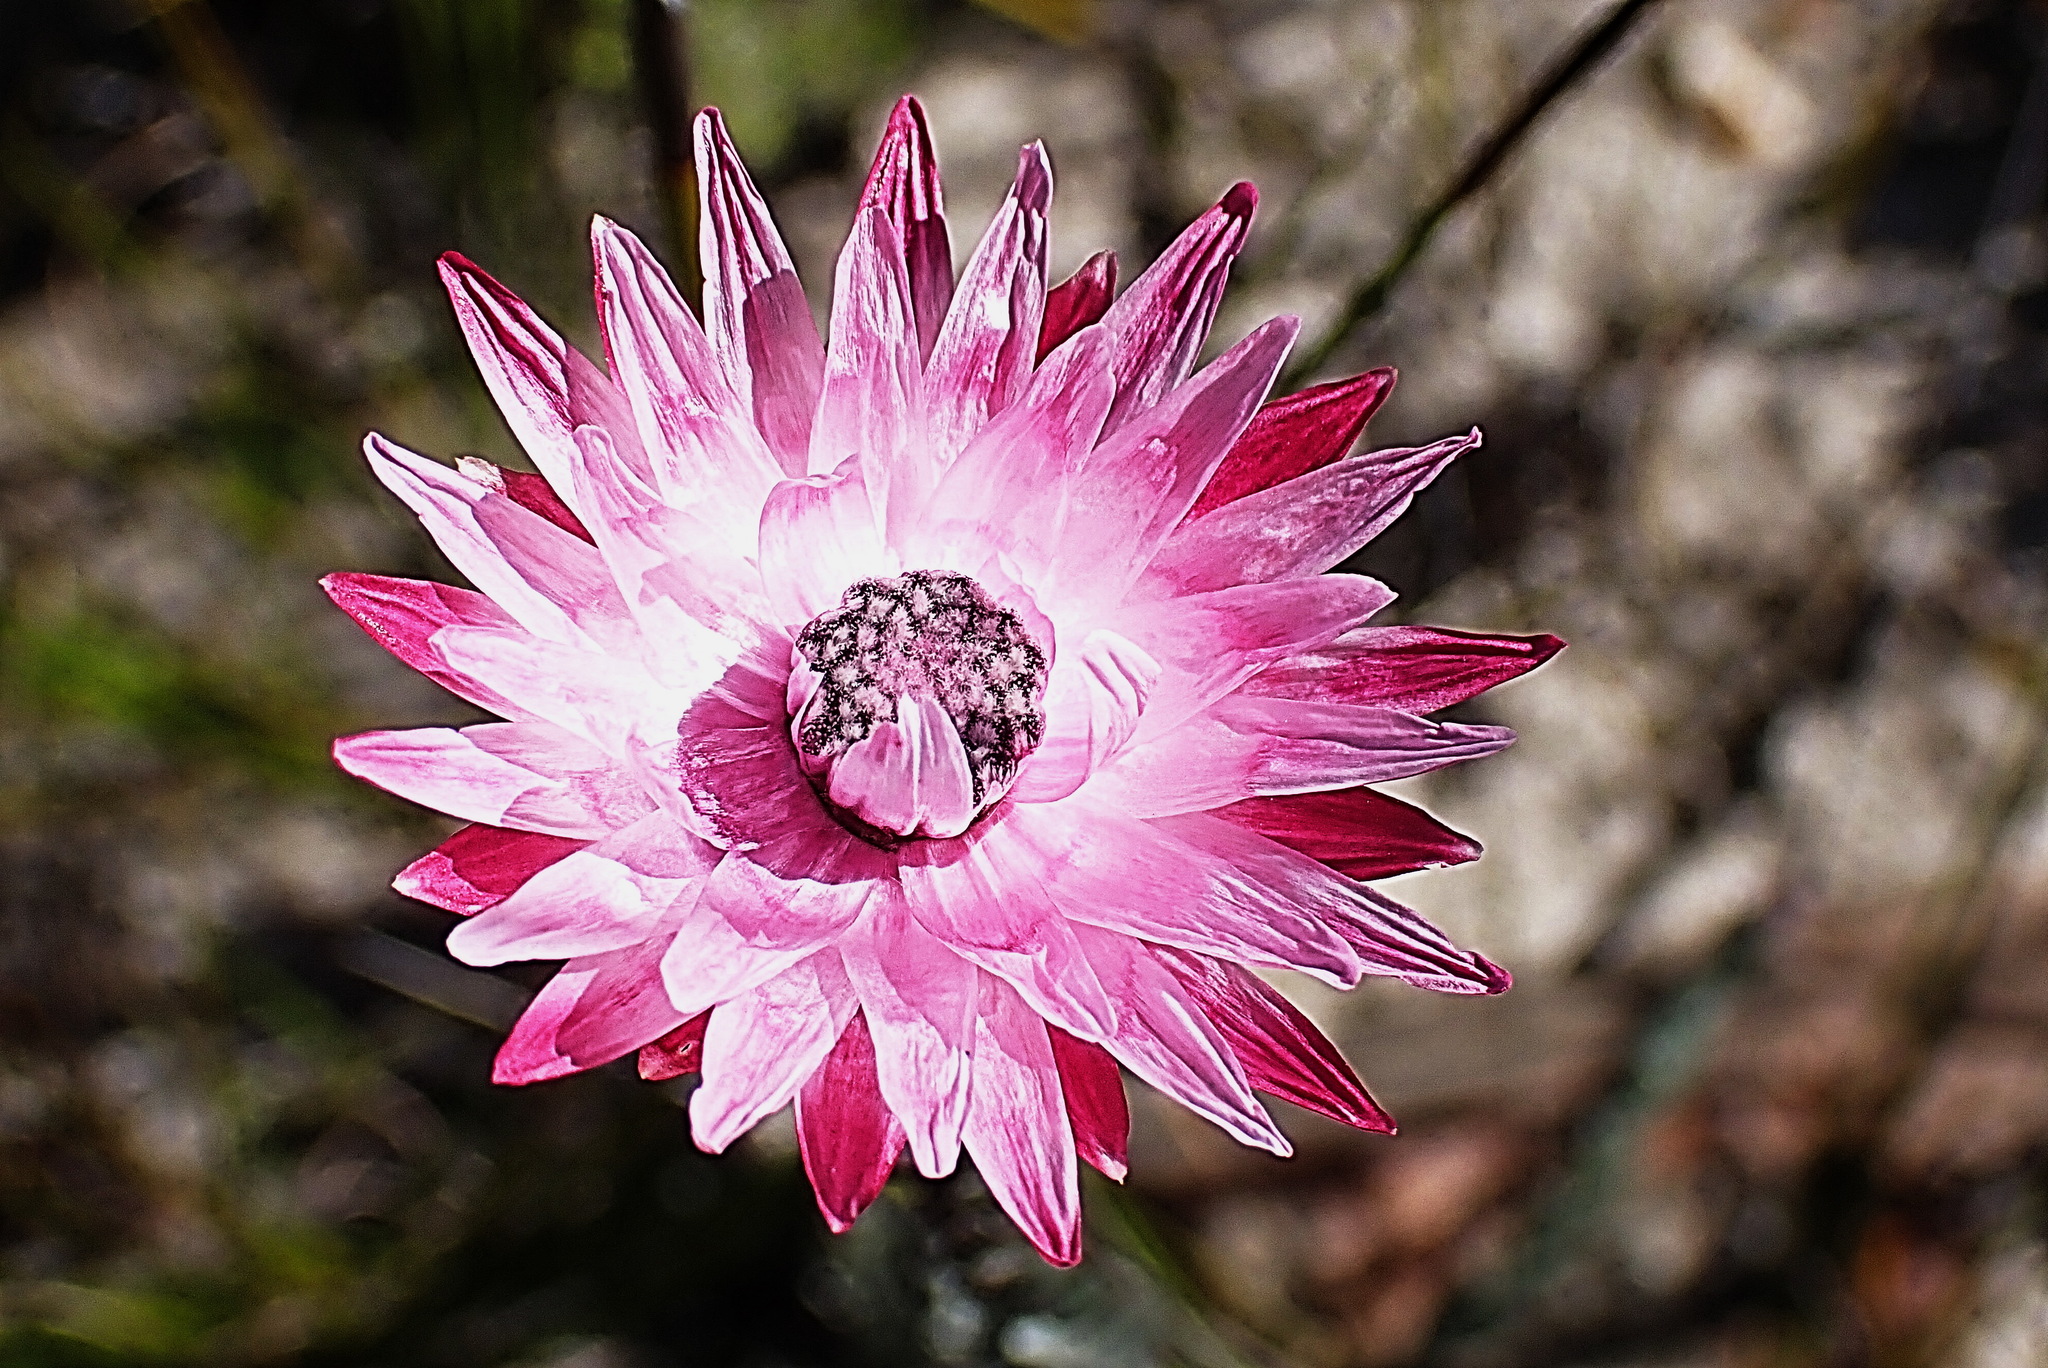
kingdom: Plantae
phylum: Tracheophyta
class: Magnoliopsida
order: Asterales
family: Asteraceae
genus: Syncarpha
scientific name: Syncarpha canescens
